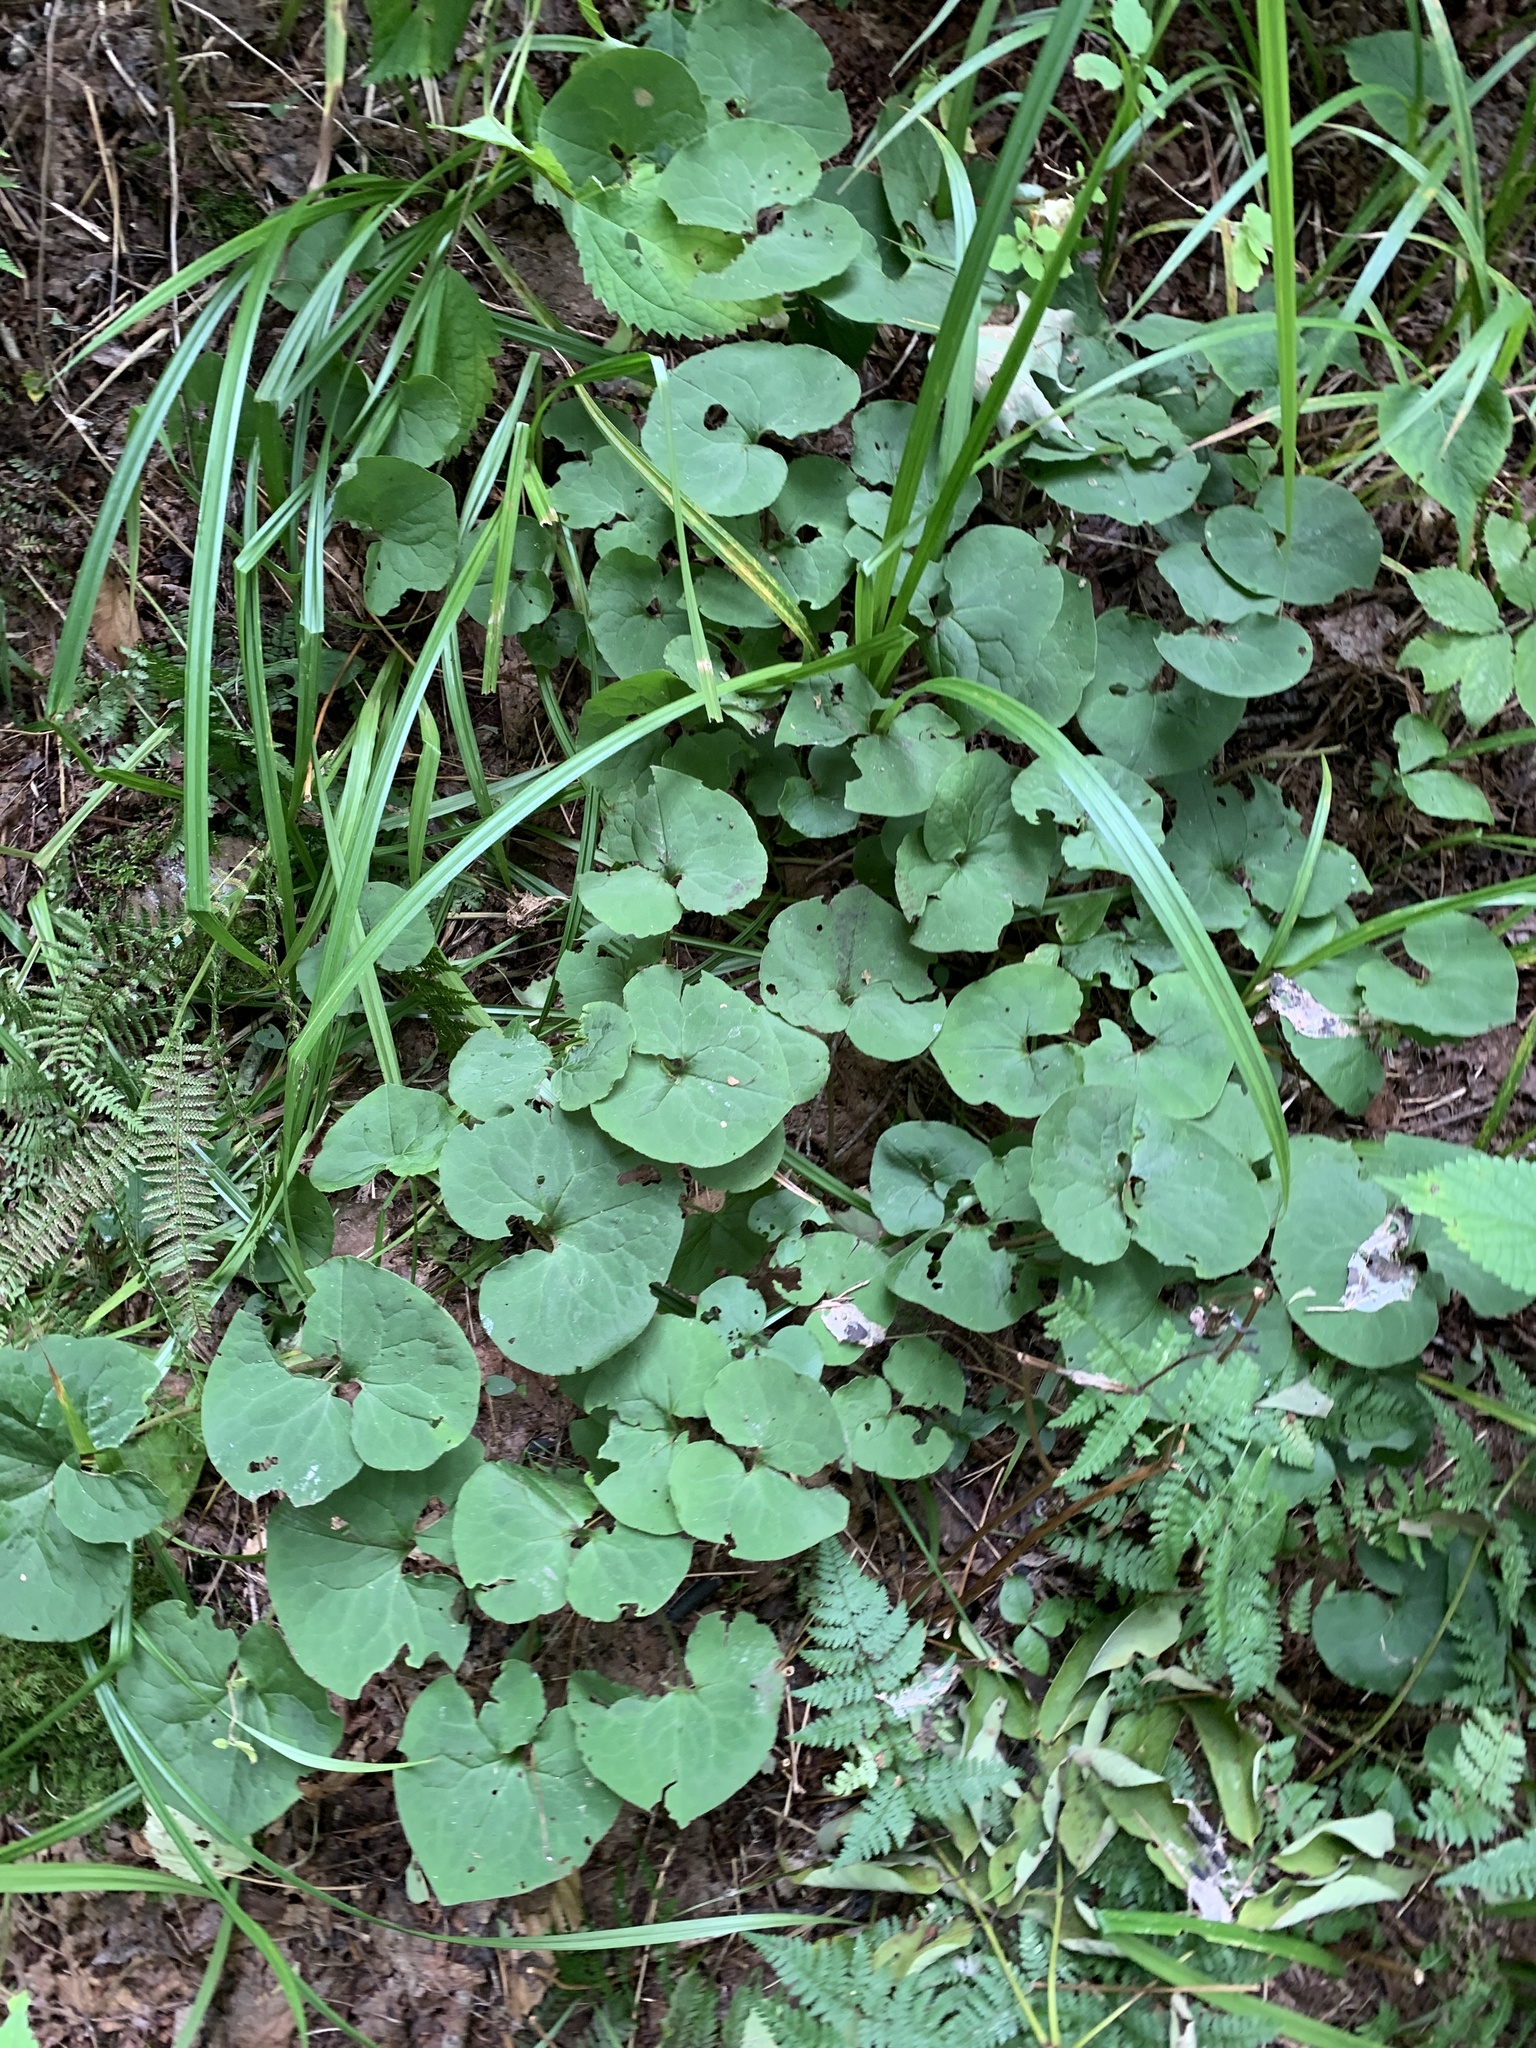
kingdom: Plantae
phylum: Tracheophyta
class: Magnoliopsida
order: Piperales
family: Aristolochiaceae
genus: Asarum
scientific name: Asarum canadense
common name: Wild ginger
